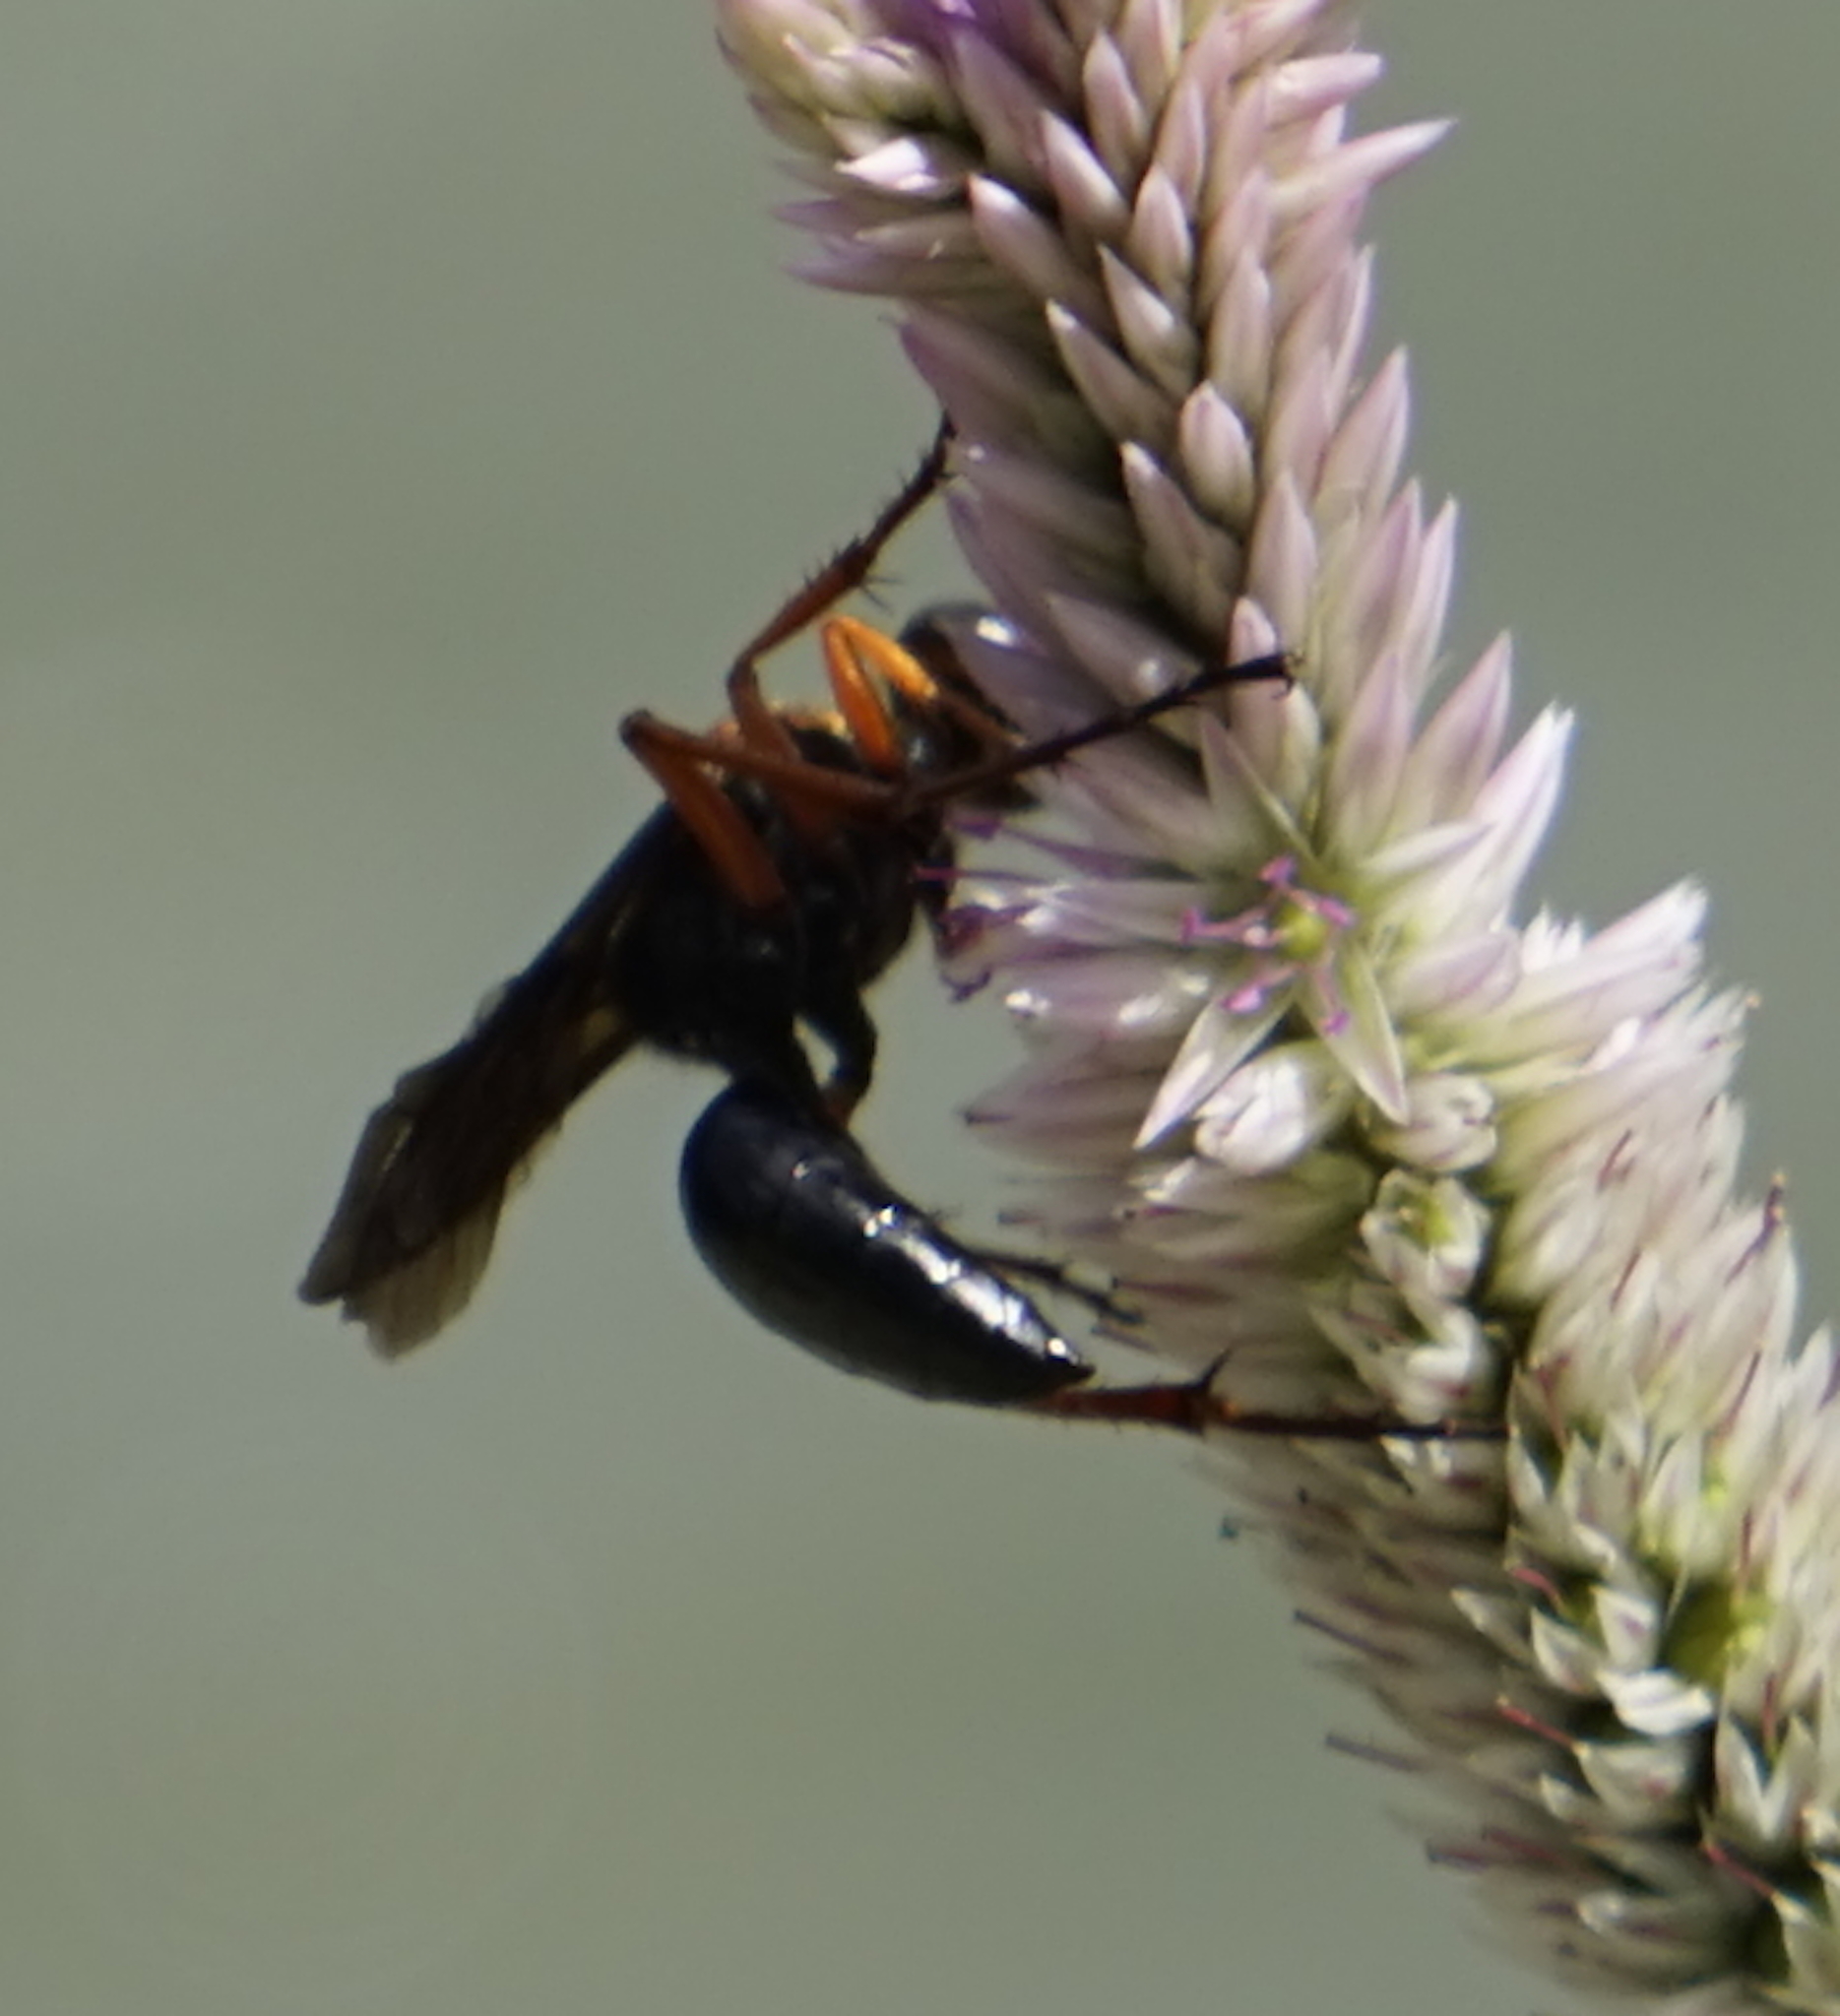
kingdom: Animalia
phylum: Arthropoda
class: Insecta
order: Hymenoptera
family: Sphecidae
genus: Sphex
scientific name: Sphex sericeus
